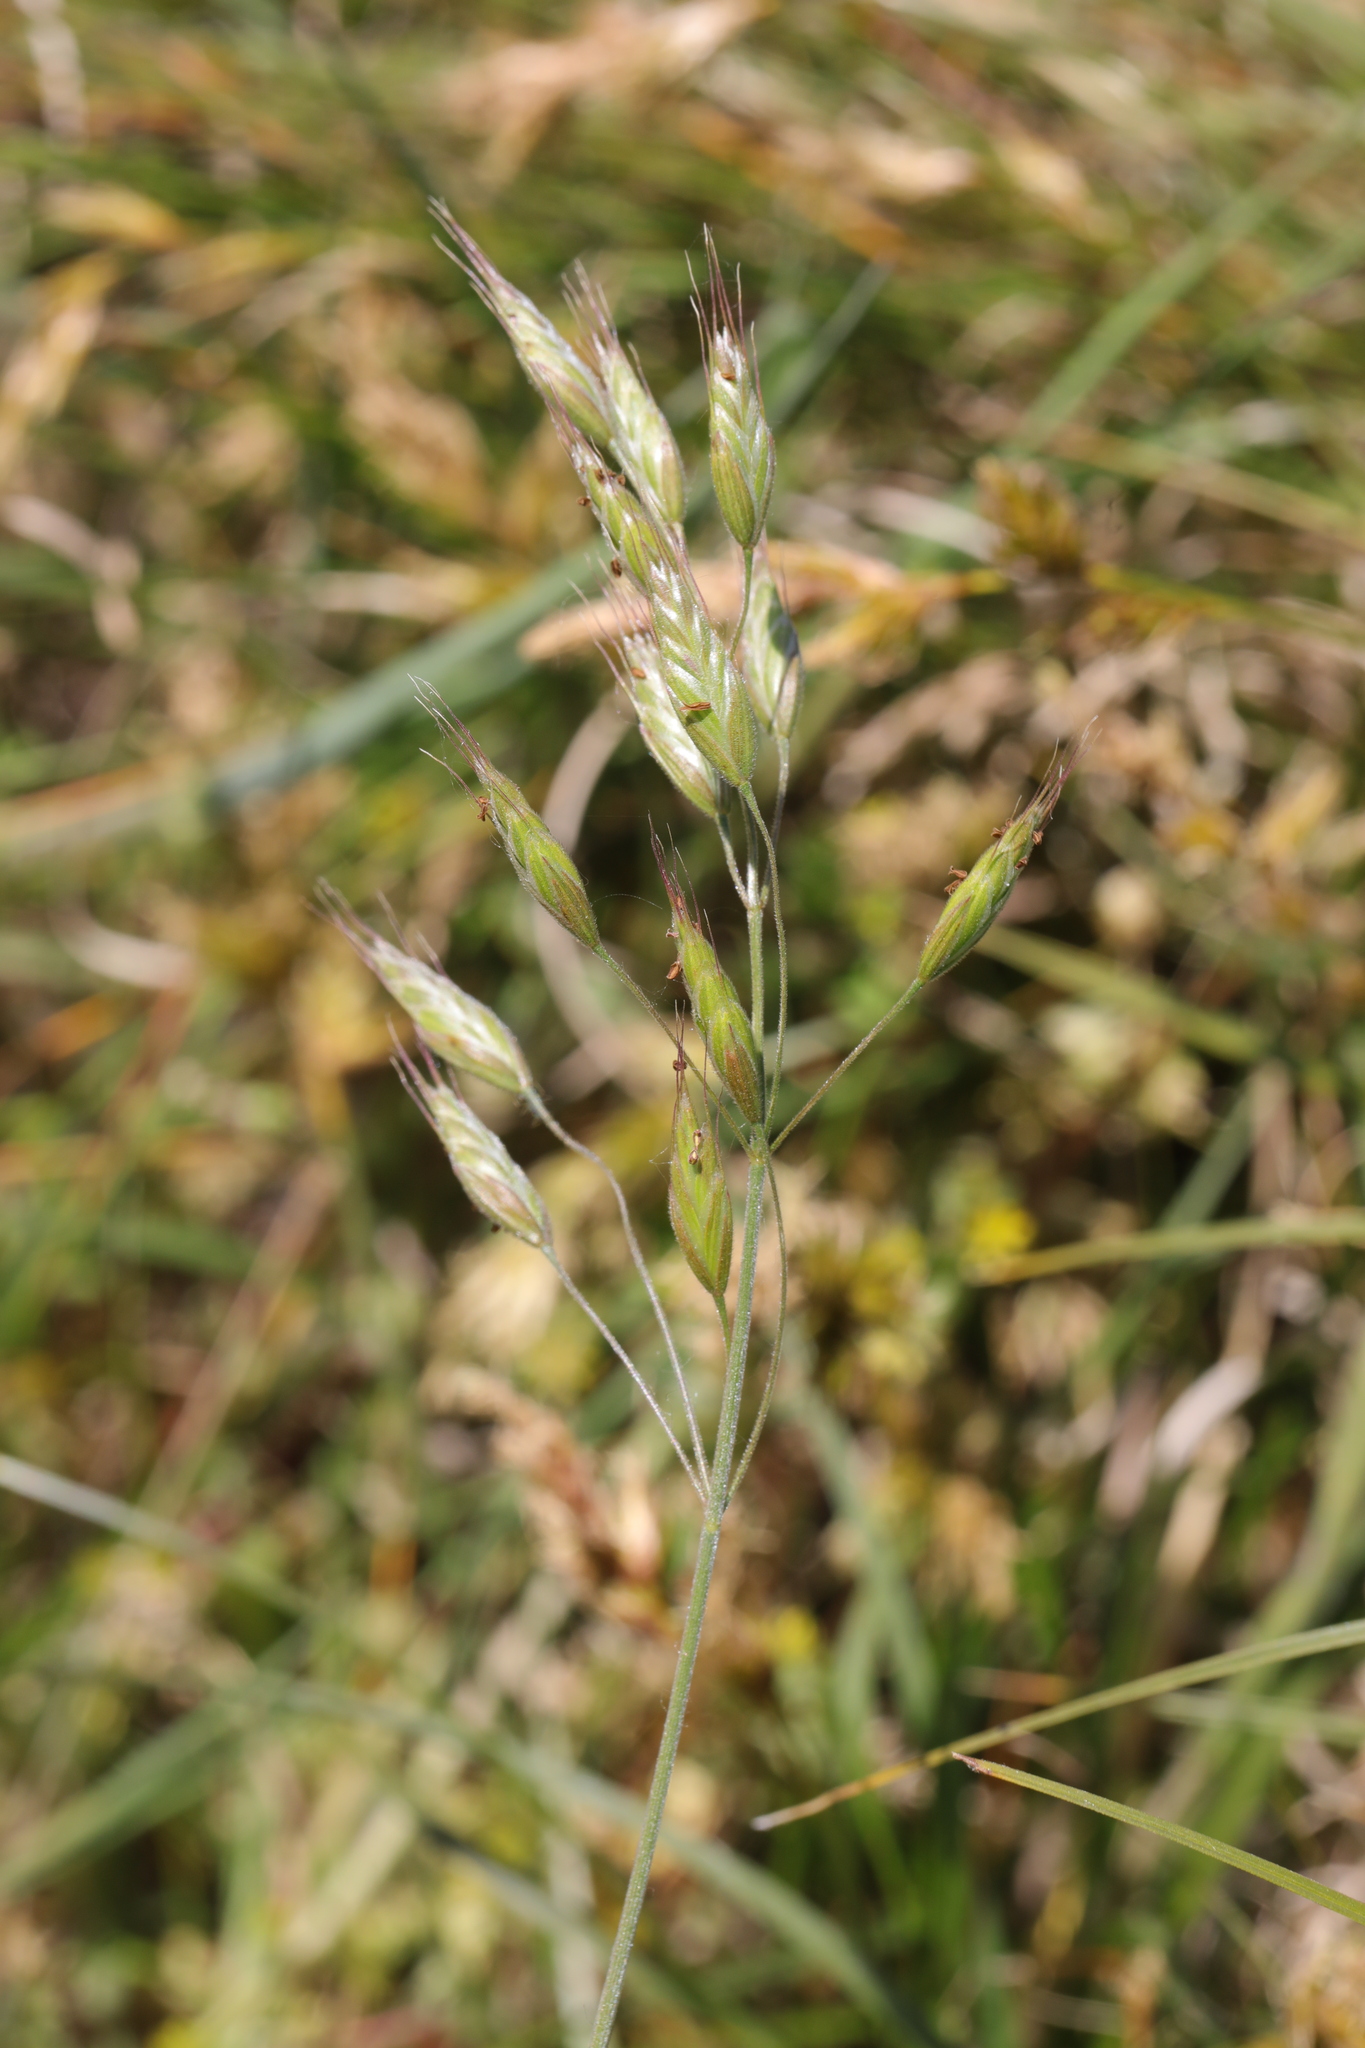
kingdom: Plantae
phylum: Tracheophyta
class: Liliopsida
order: Poales
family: Poaceae
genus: Bromus
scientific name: Bromus hordeaceus
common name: Soft brome
